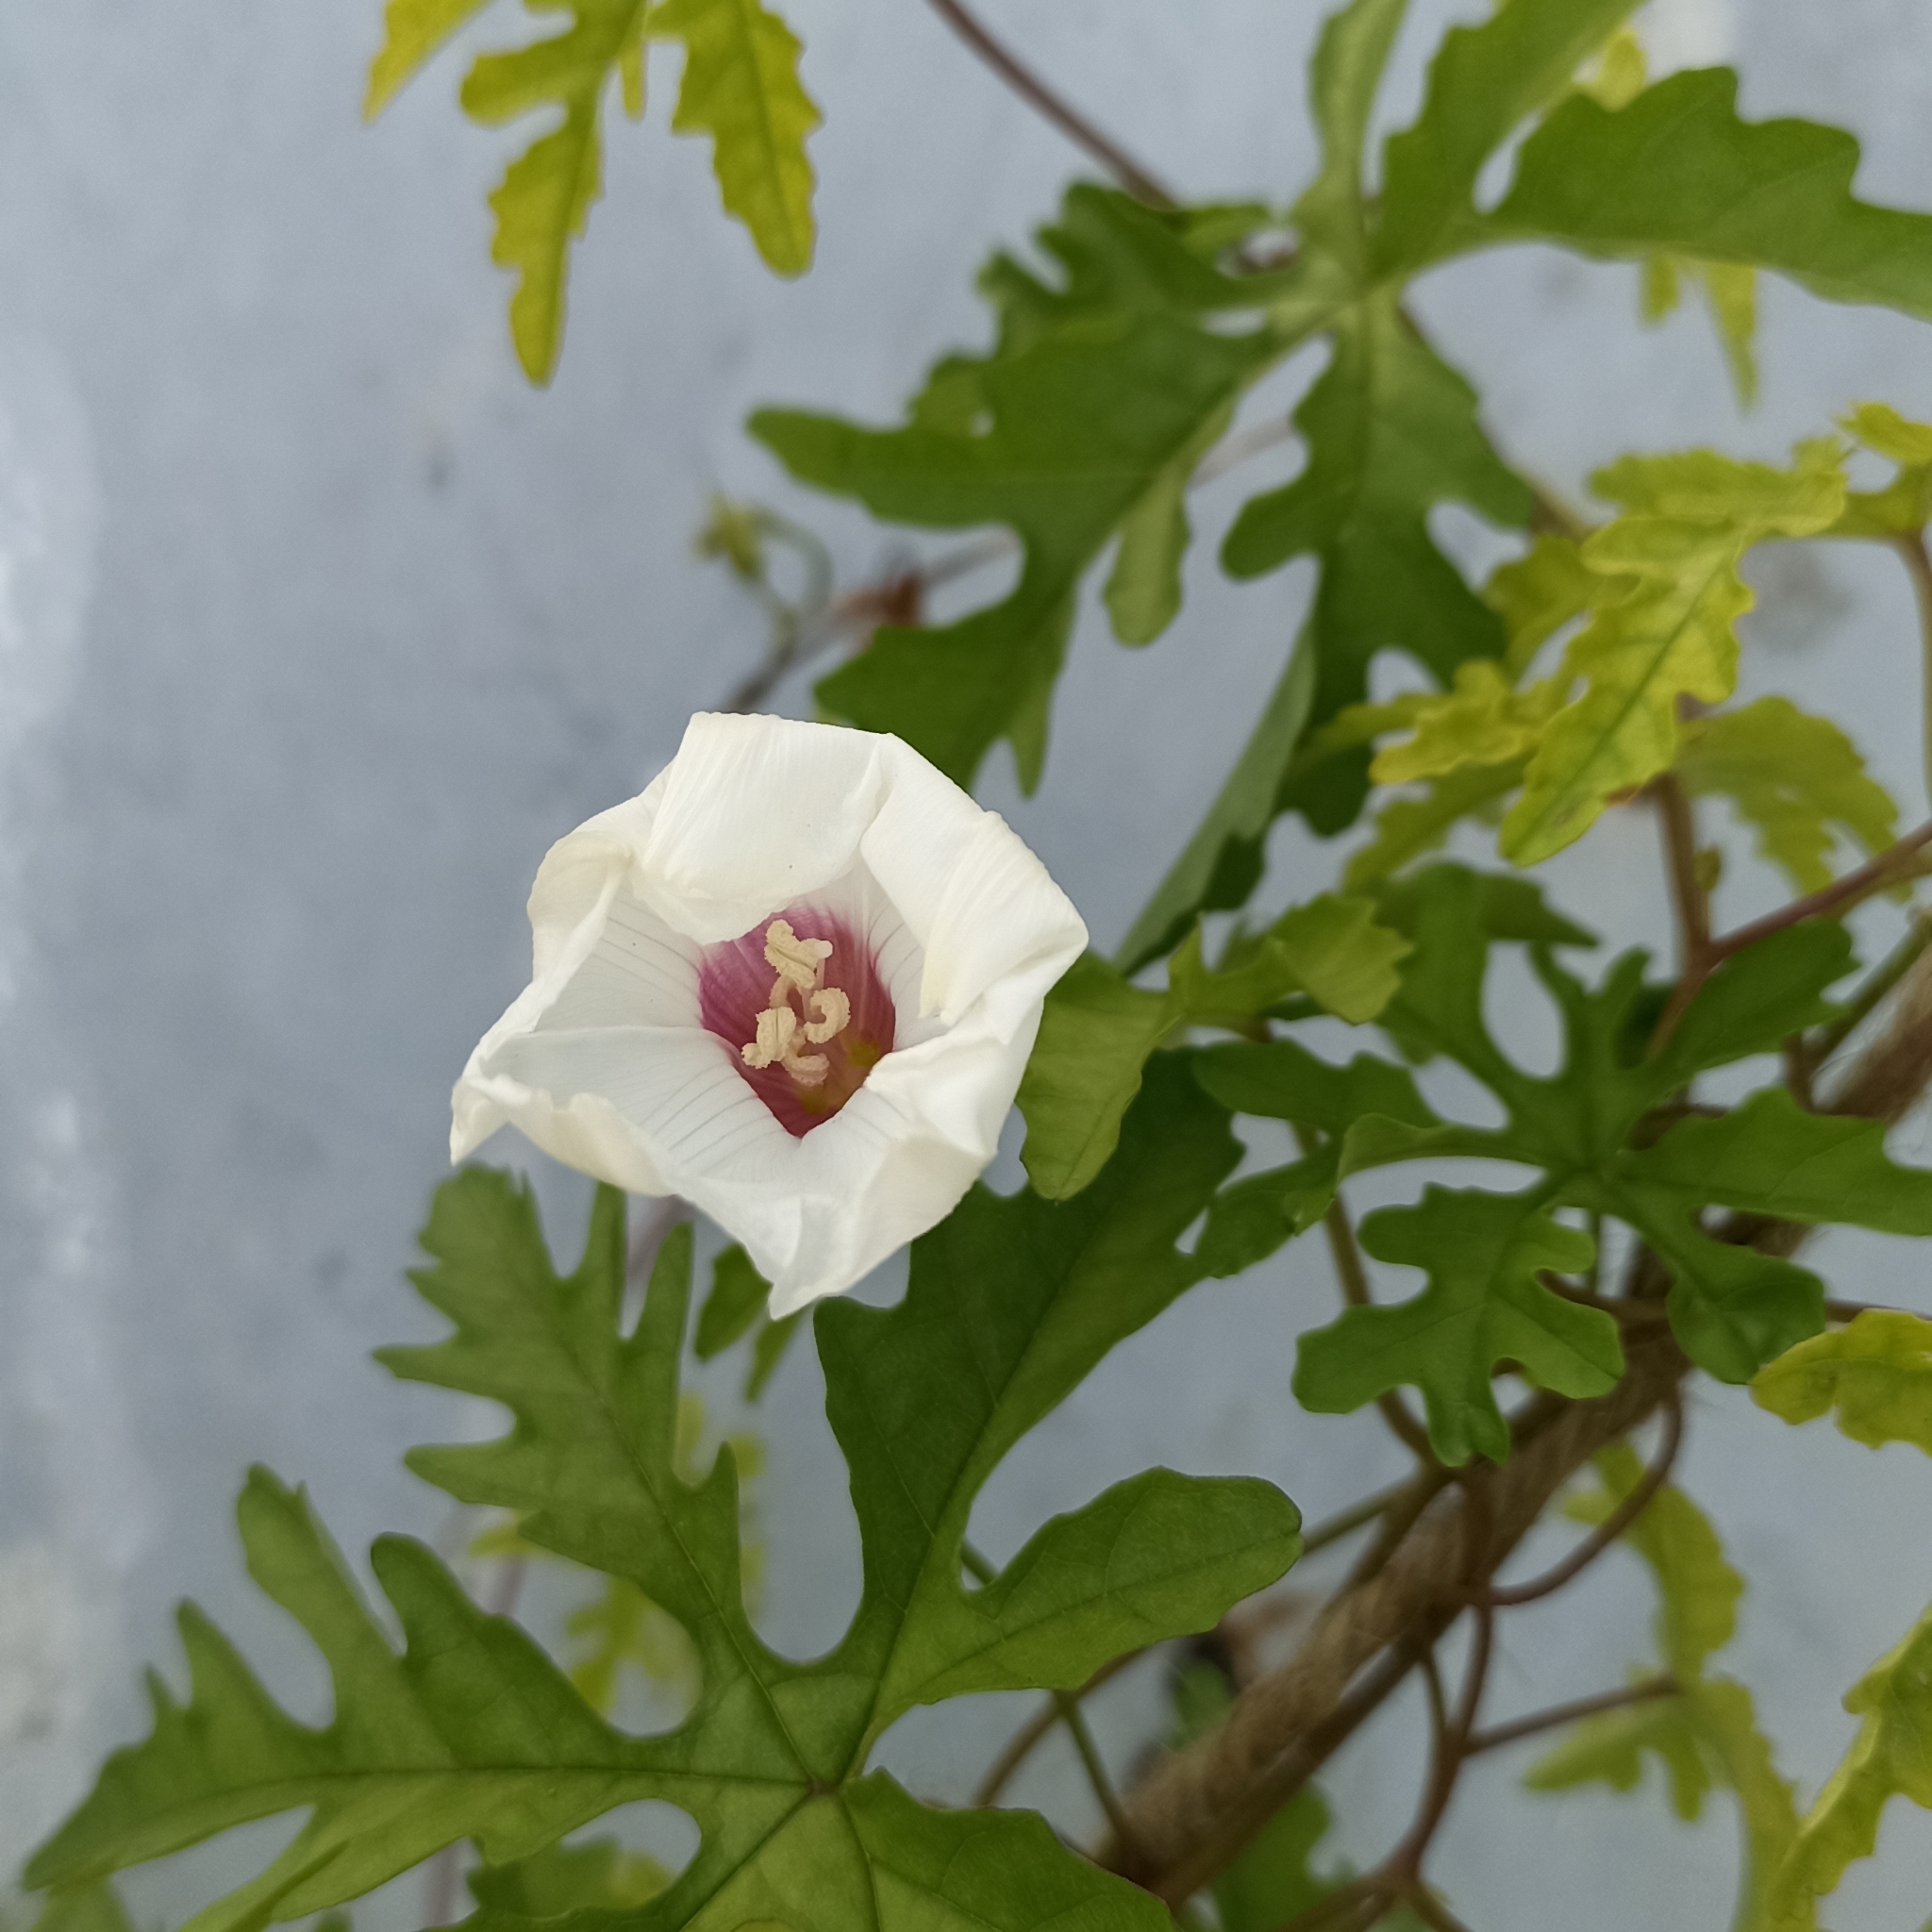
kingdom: Plantae
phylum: Tracheophyta
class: Magnoliopsida
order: Solanales
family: Convolvulaceae
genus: Distimake
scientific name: Distimake dissectus
